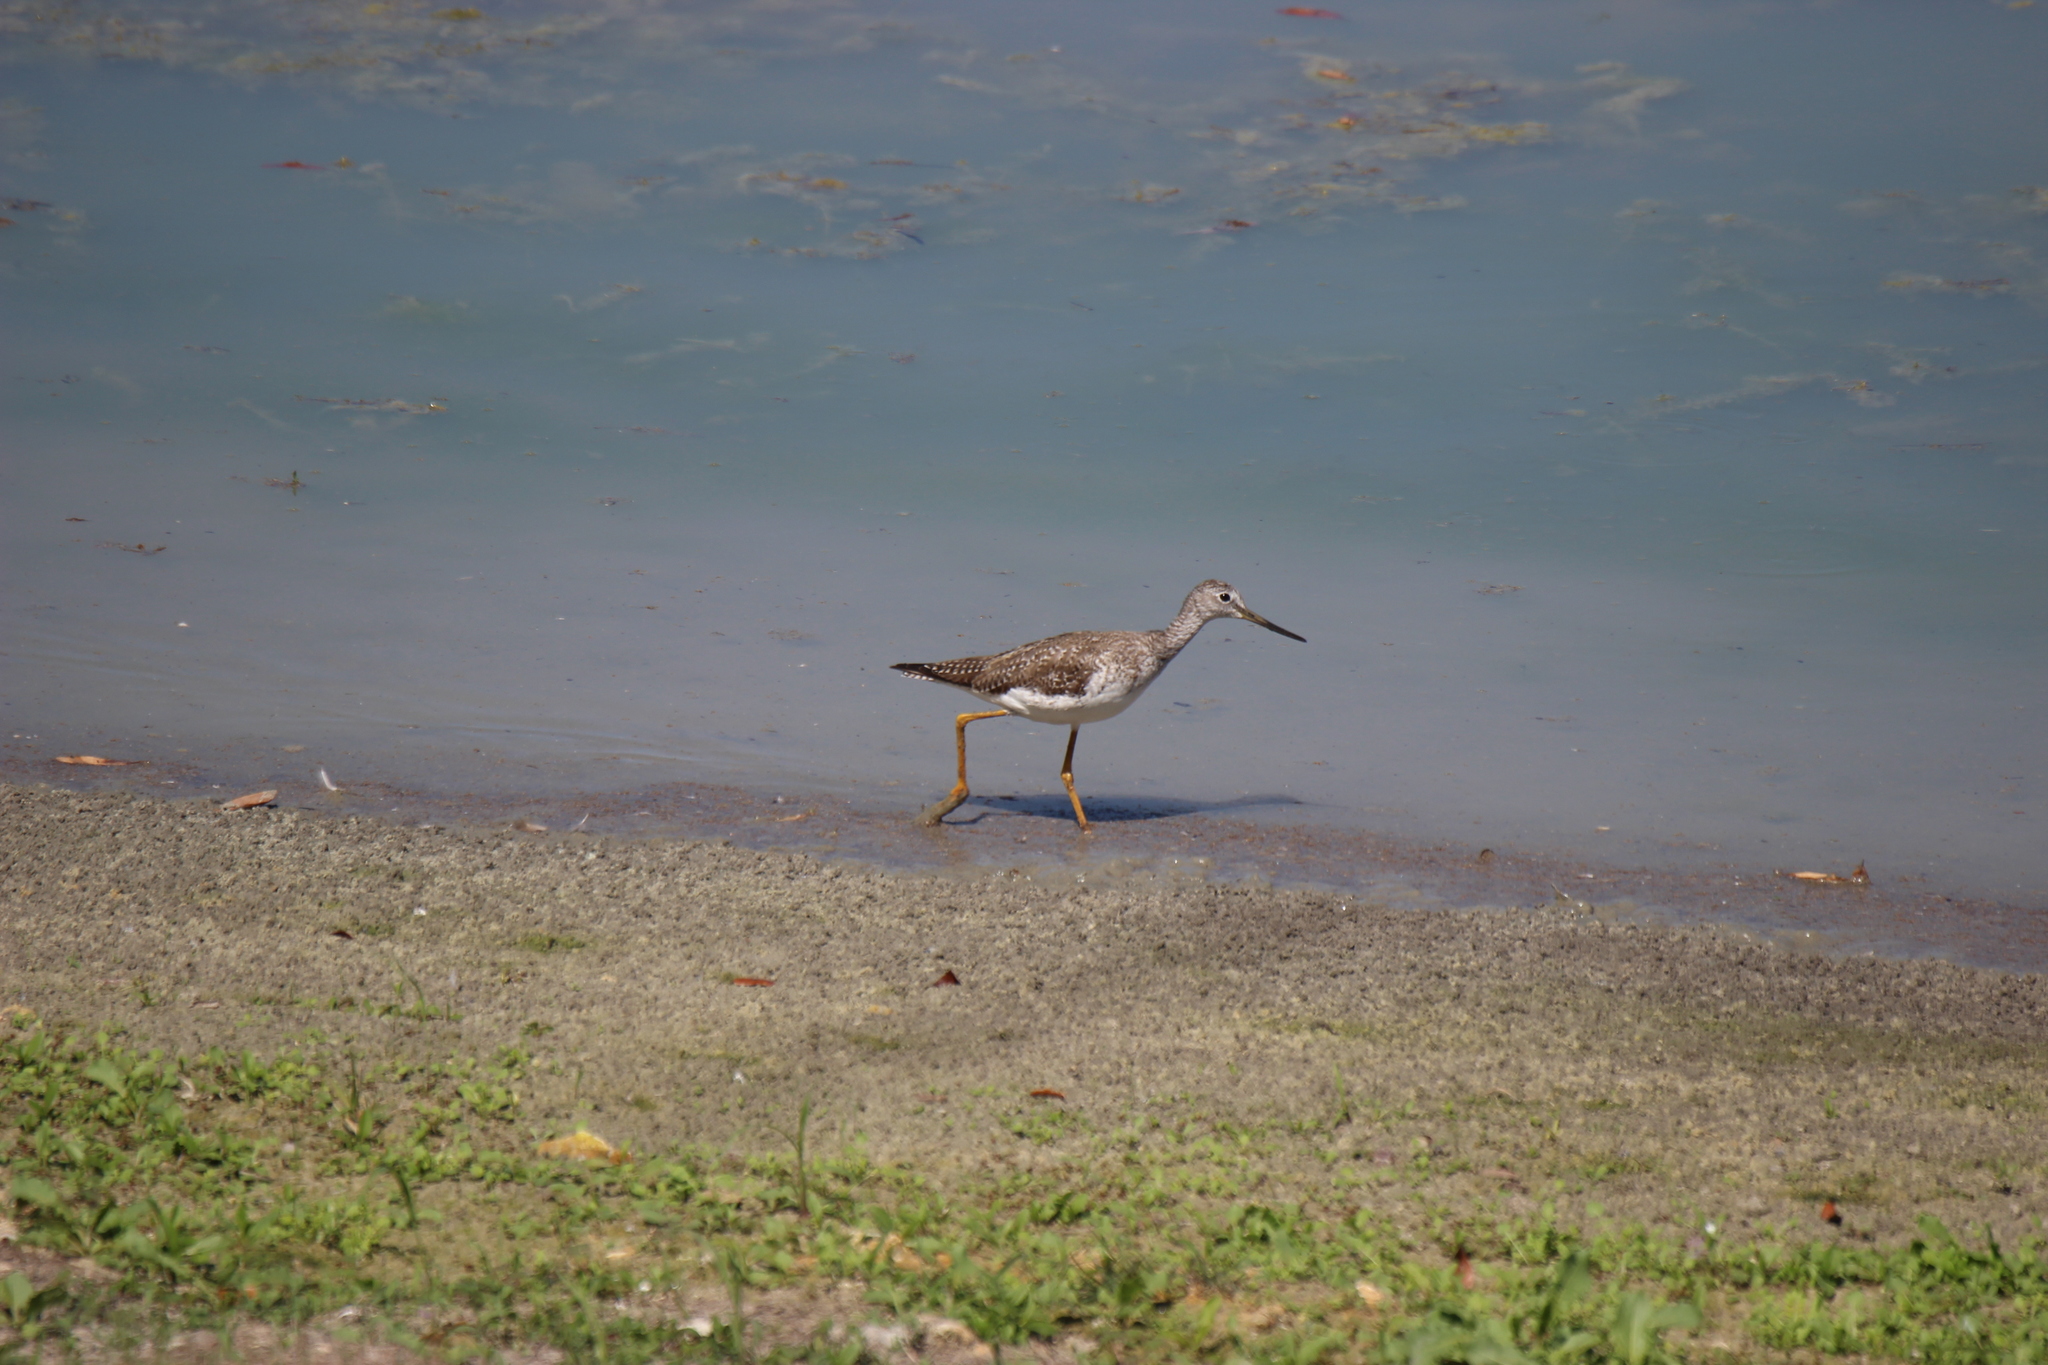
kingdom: Animalia
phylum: Chordata
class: Aves
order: Charadriiformes
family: Scolopacidae
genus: Tringa
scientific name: Tringa melanoleuca
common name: Greater yellowlegs
